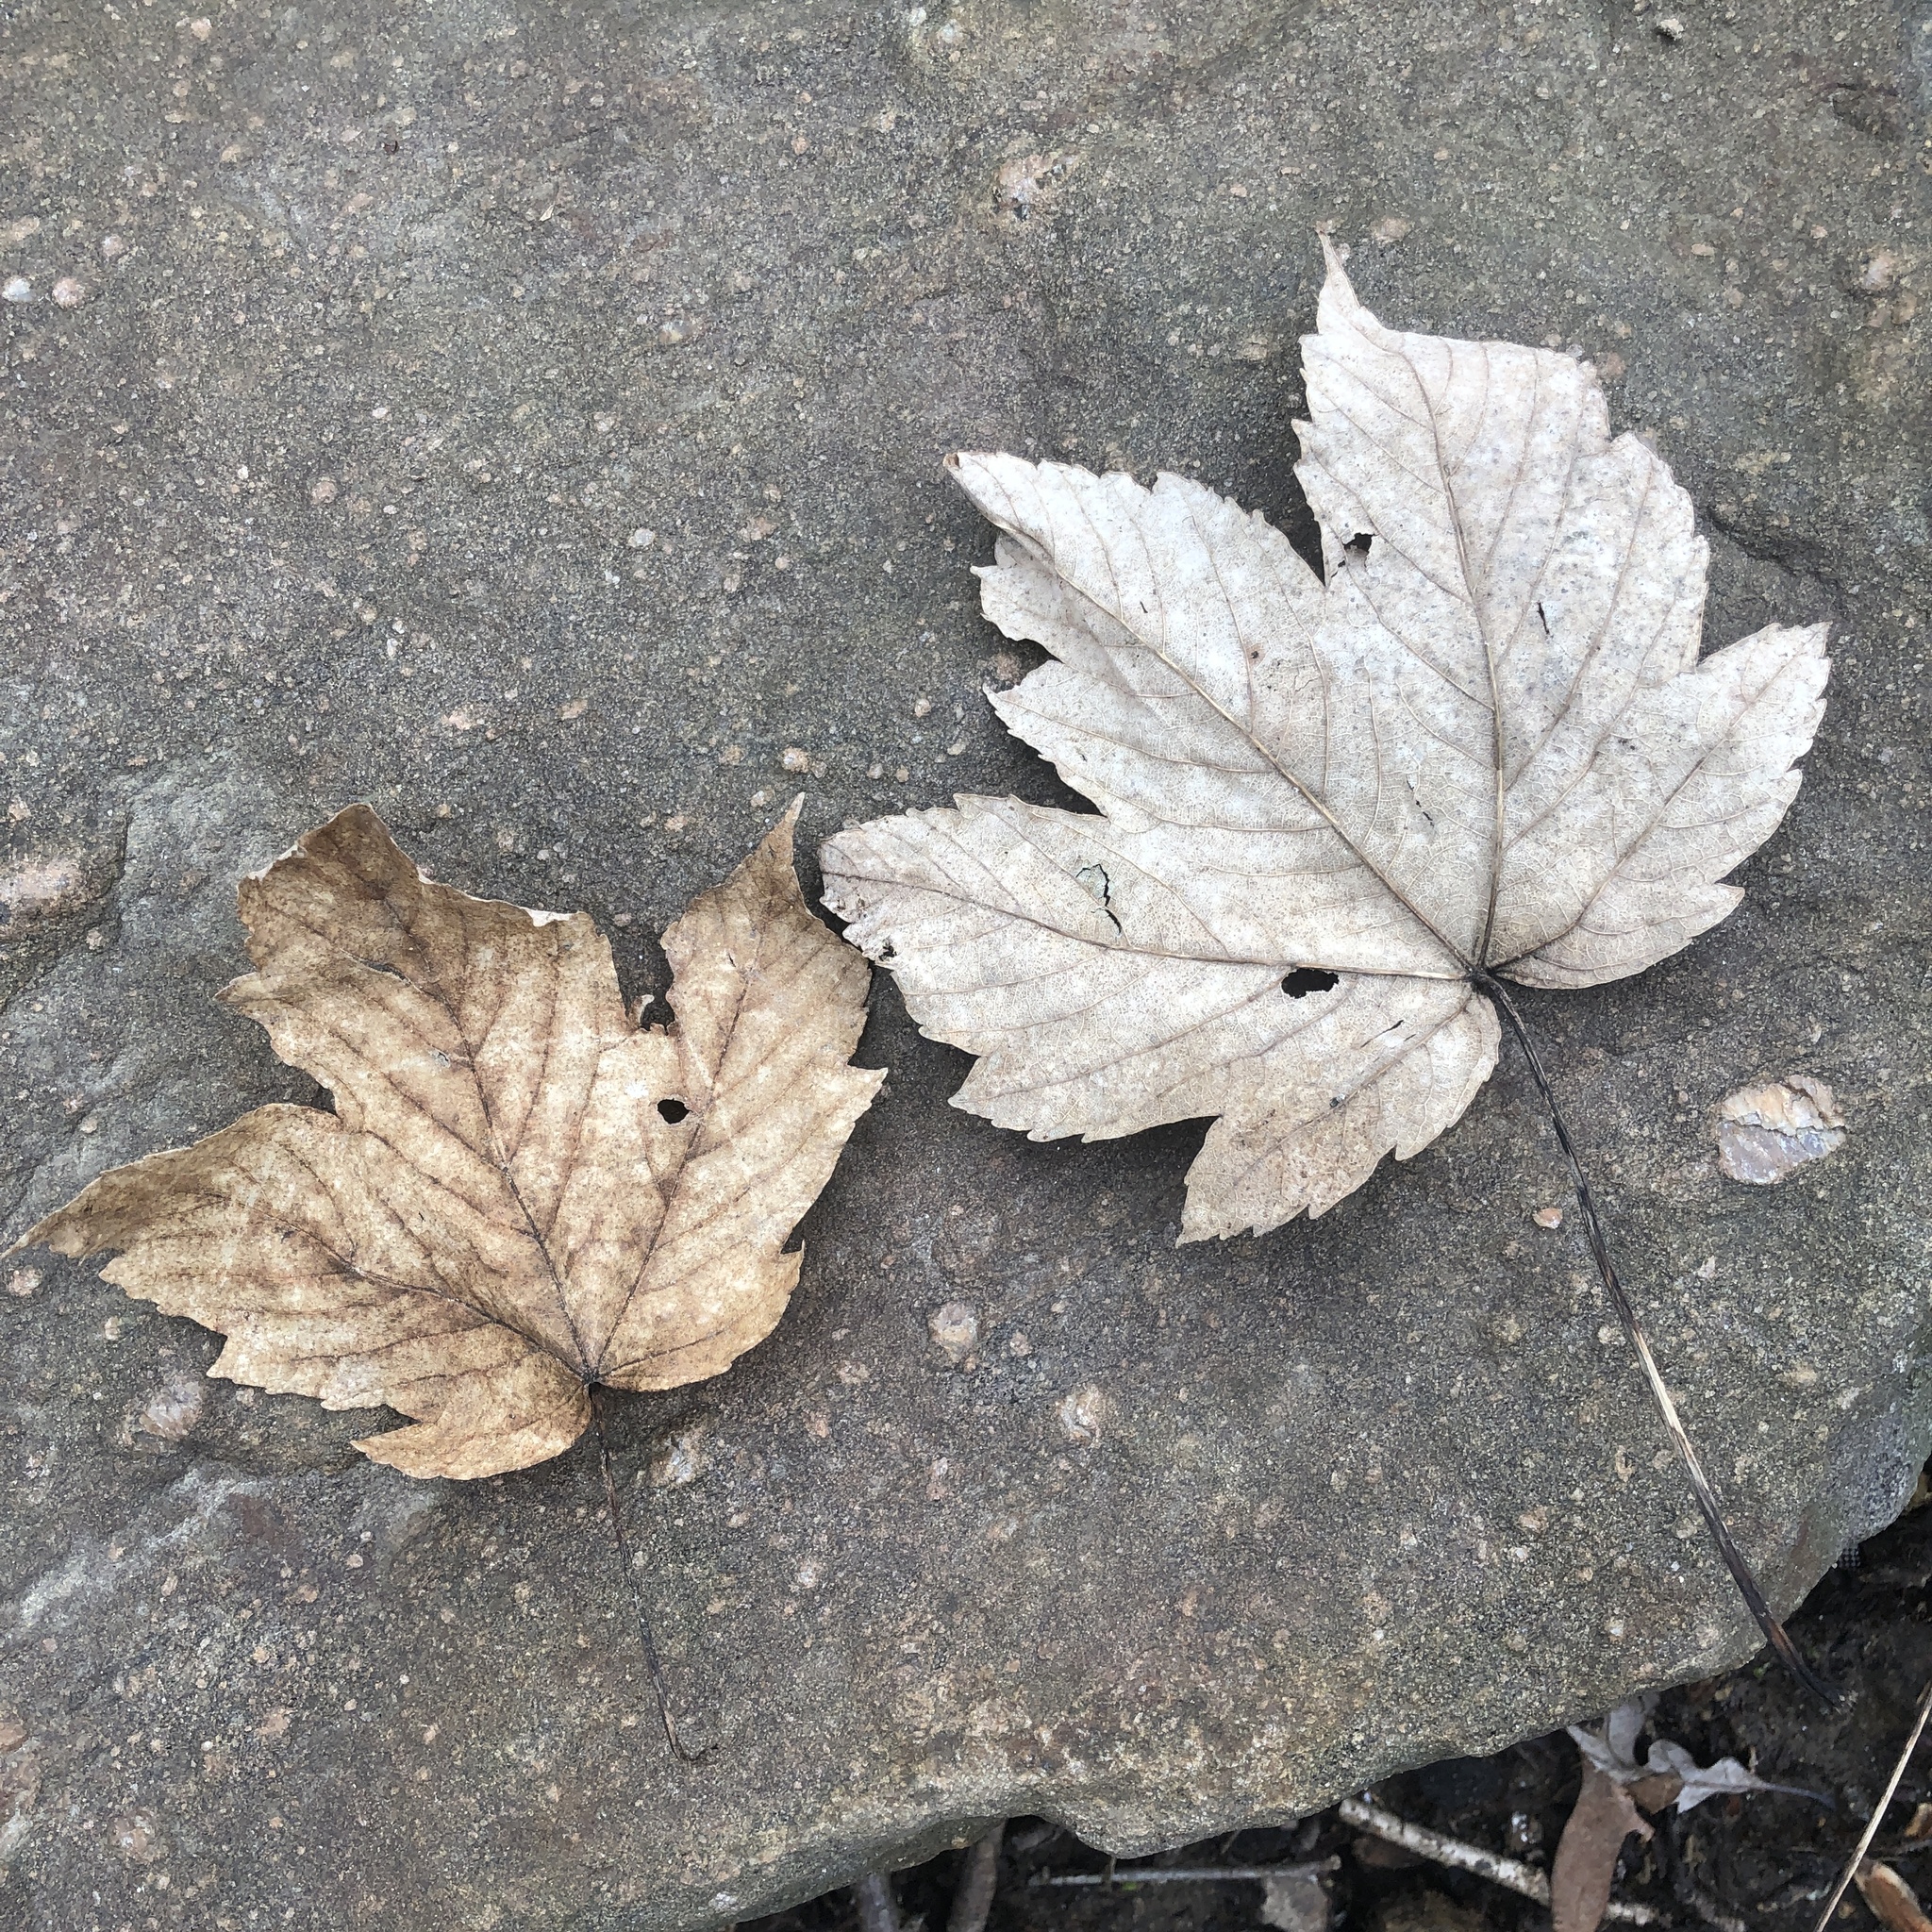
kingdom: Plantae
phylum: Tracheophyta
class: Magnoliopsida
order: Sapindales
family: Sapindaceae
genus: Acer
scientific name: Acer pseudoplatanus
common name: Sycamore
